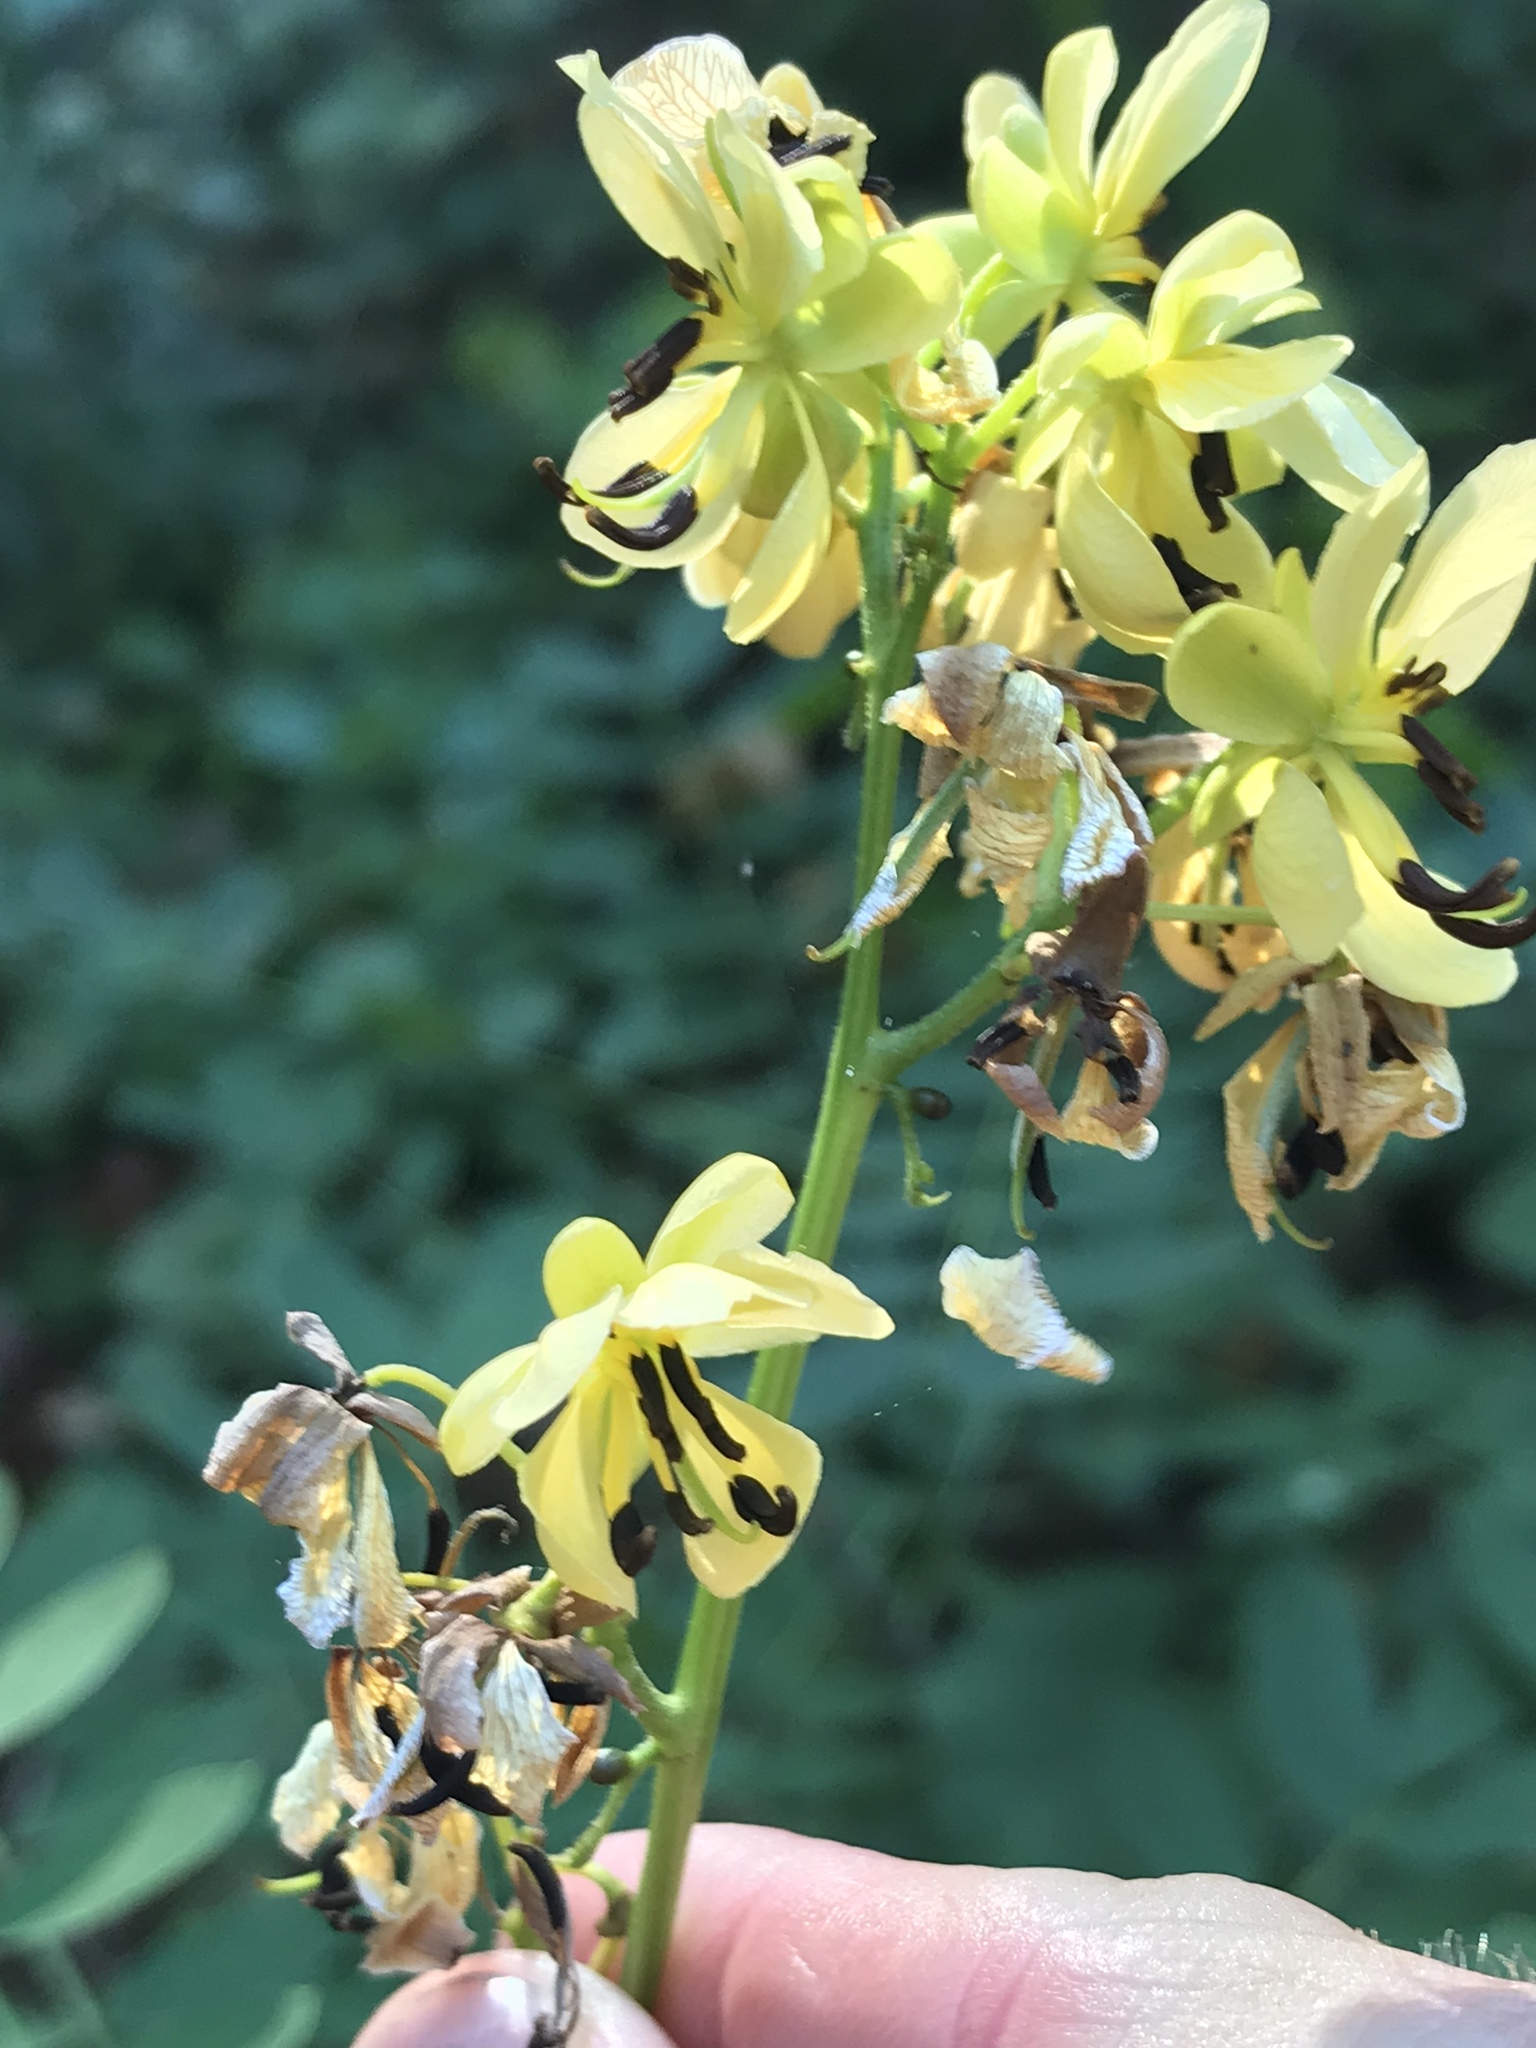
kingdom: Plantae
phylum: Tracheophyta
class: Magnoliopsida
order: Fabales
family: Fabaceae
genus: Senna
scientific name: Senna marilandica
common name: American senna
